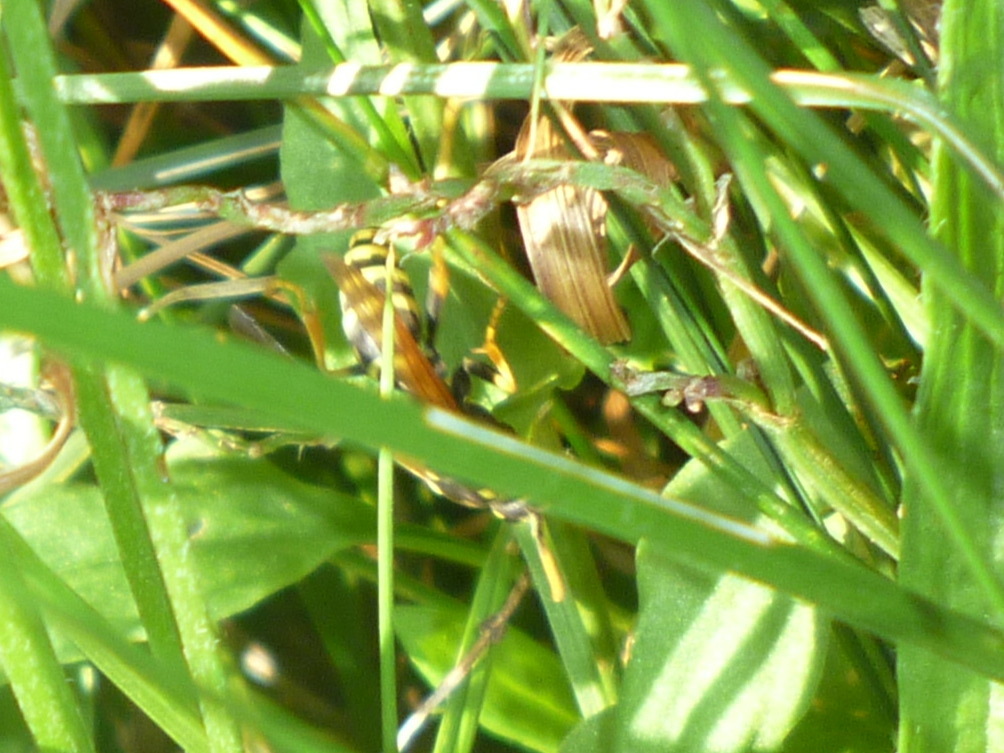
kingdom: Animalia
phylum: Arthropoda
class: Insecta
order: Hymenoptera
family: Eumenidae
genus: Polistes
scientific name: Polistes dominula
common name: Paper wasp
